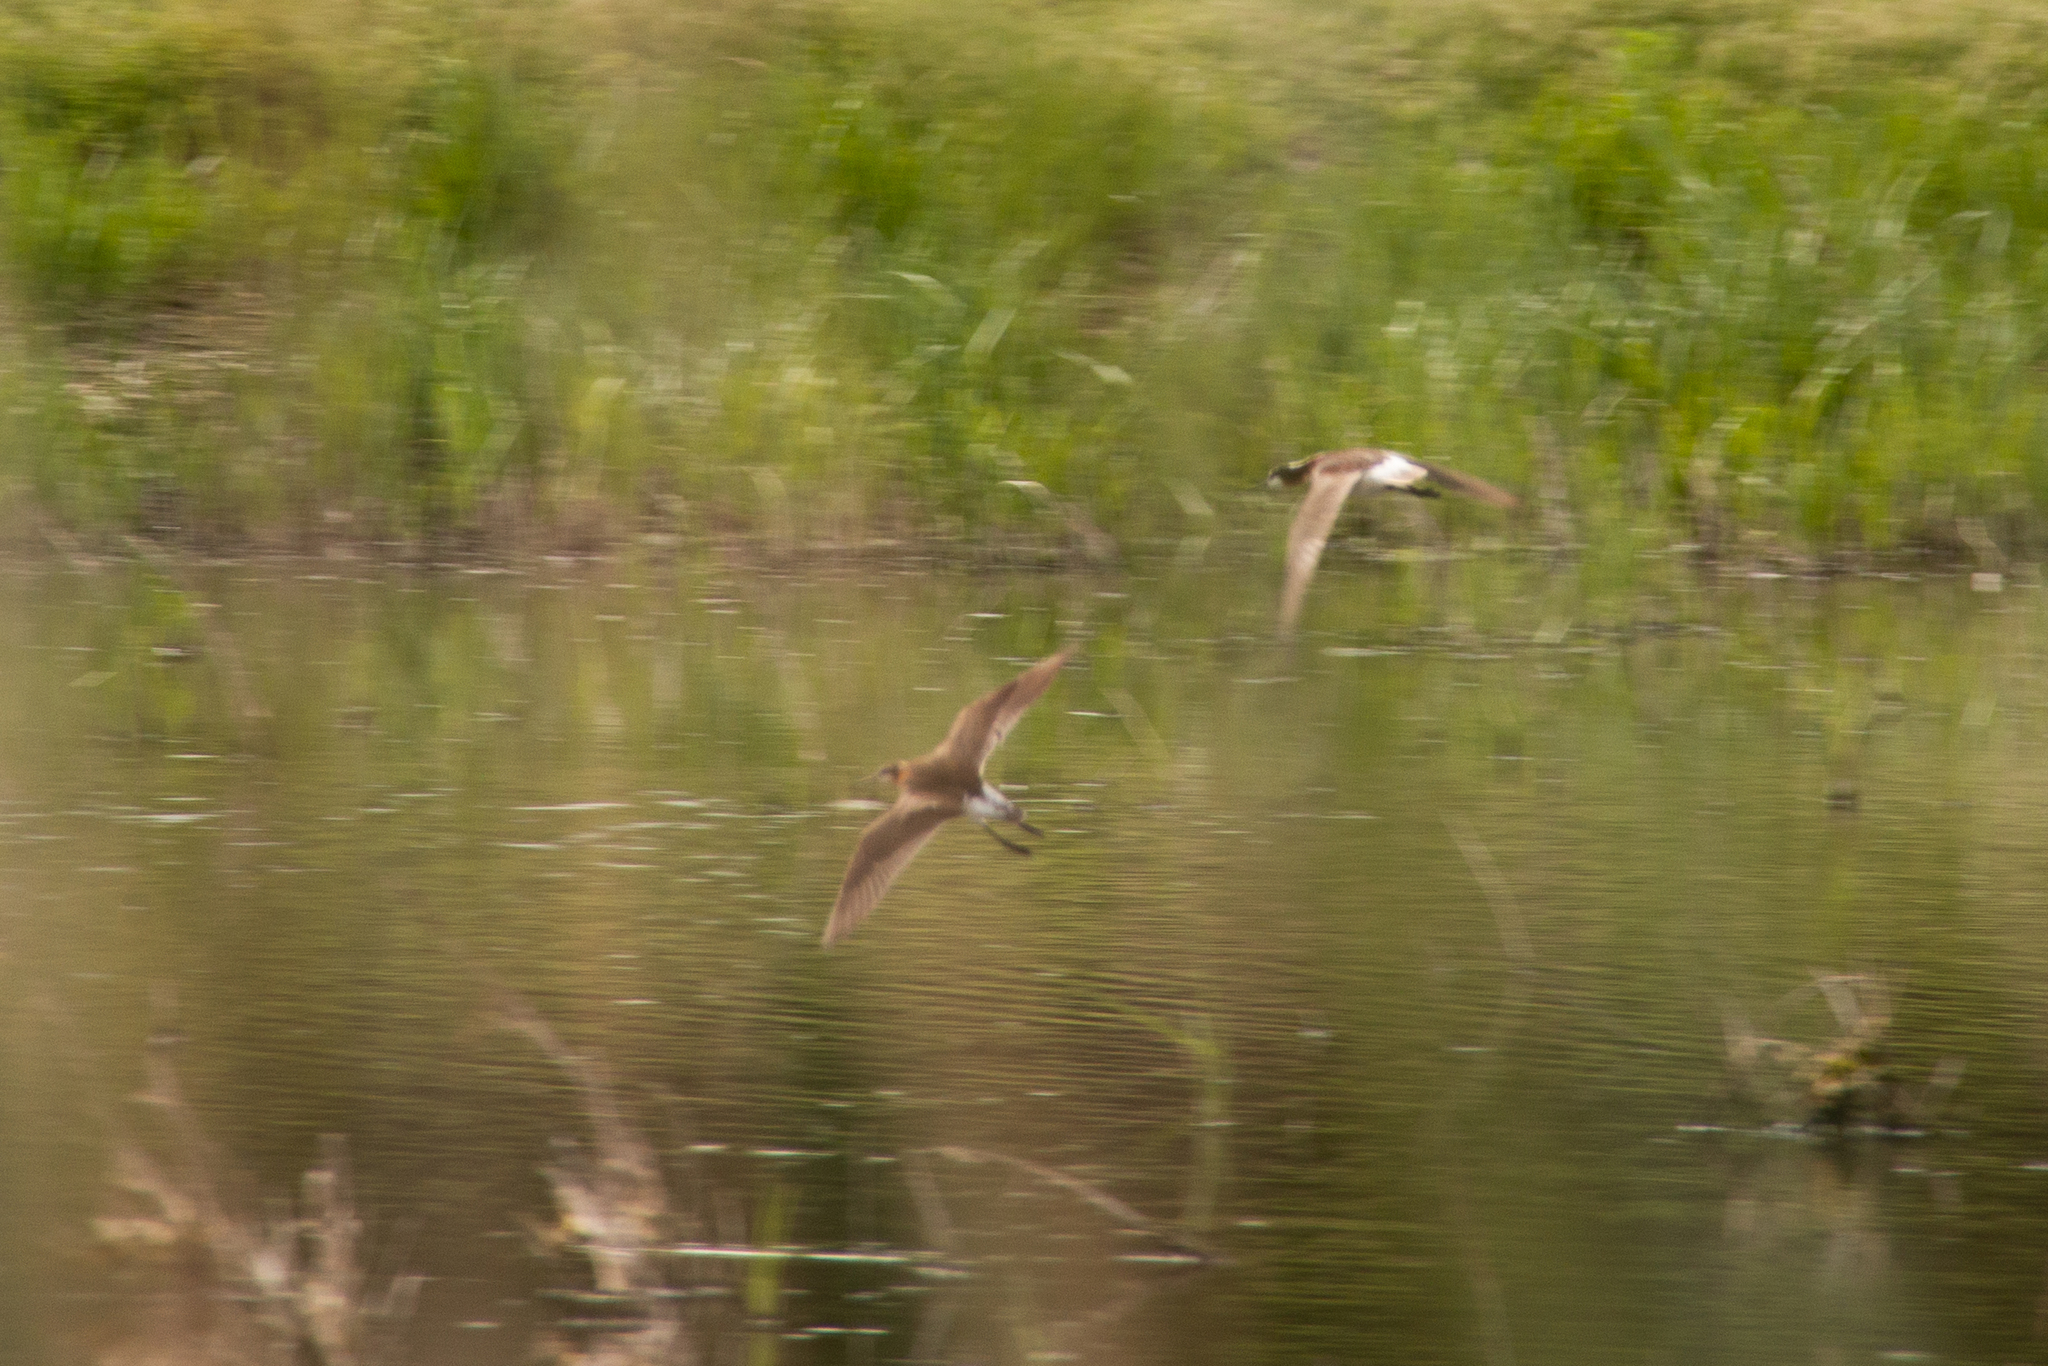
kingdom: Animalia
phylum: Chordata
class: Aves
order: Charadriiformes
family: Scolopacidae
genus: Phalaropus
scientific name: Phalaropus tricolor
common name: Wilson's phalarope
